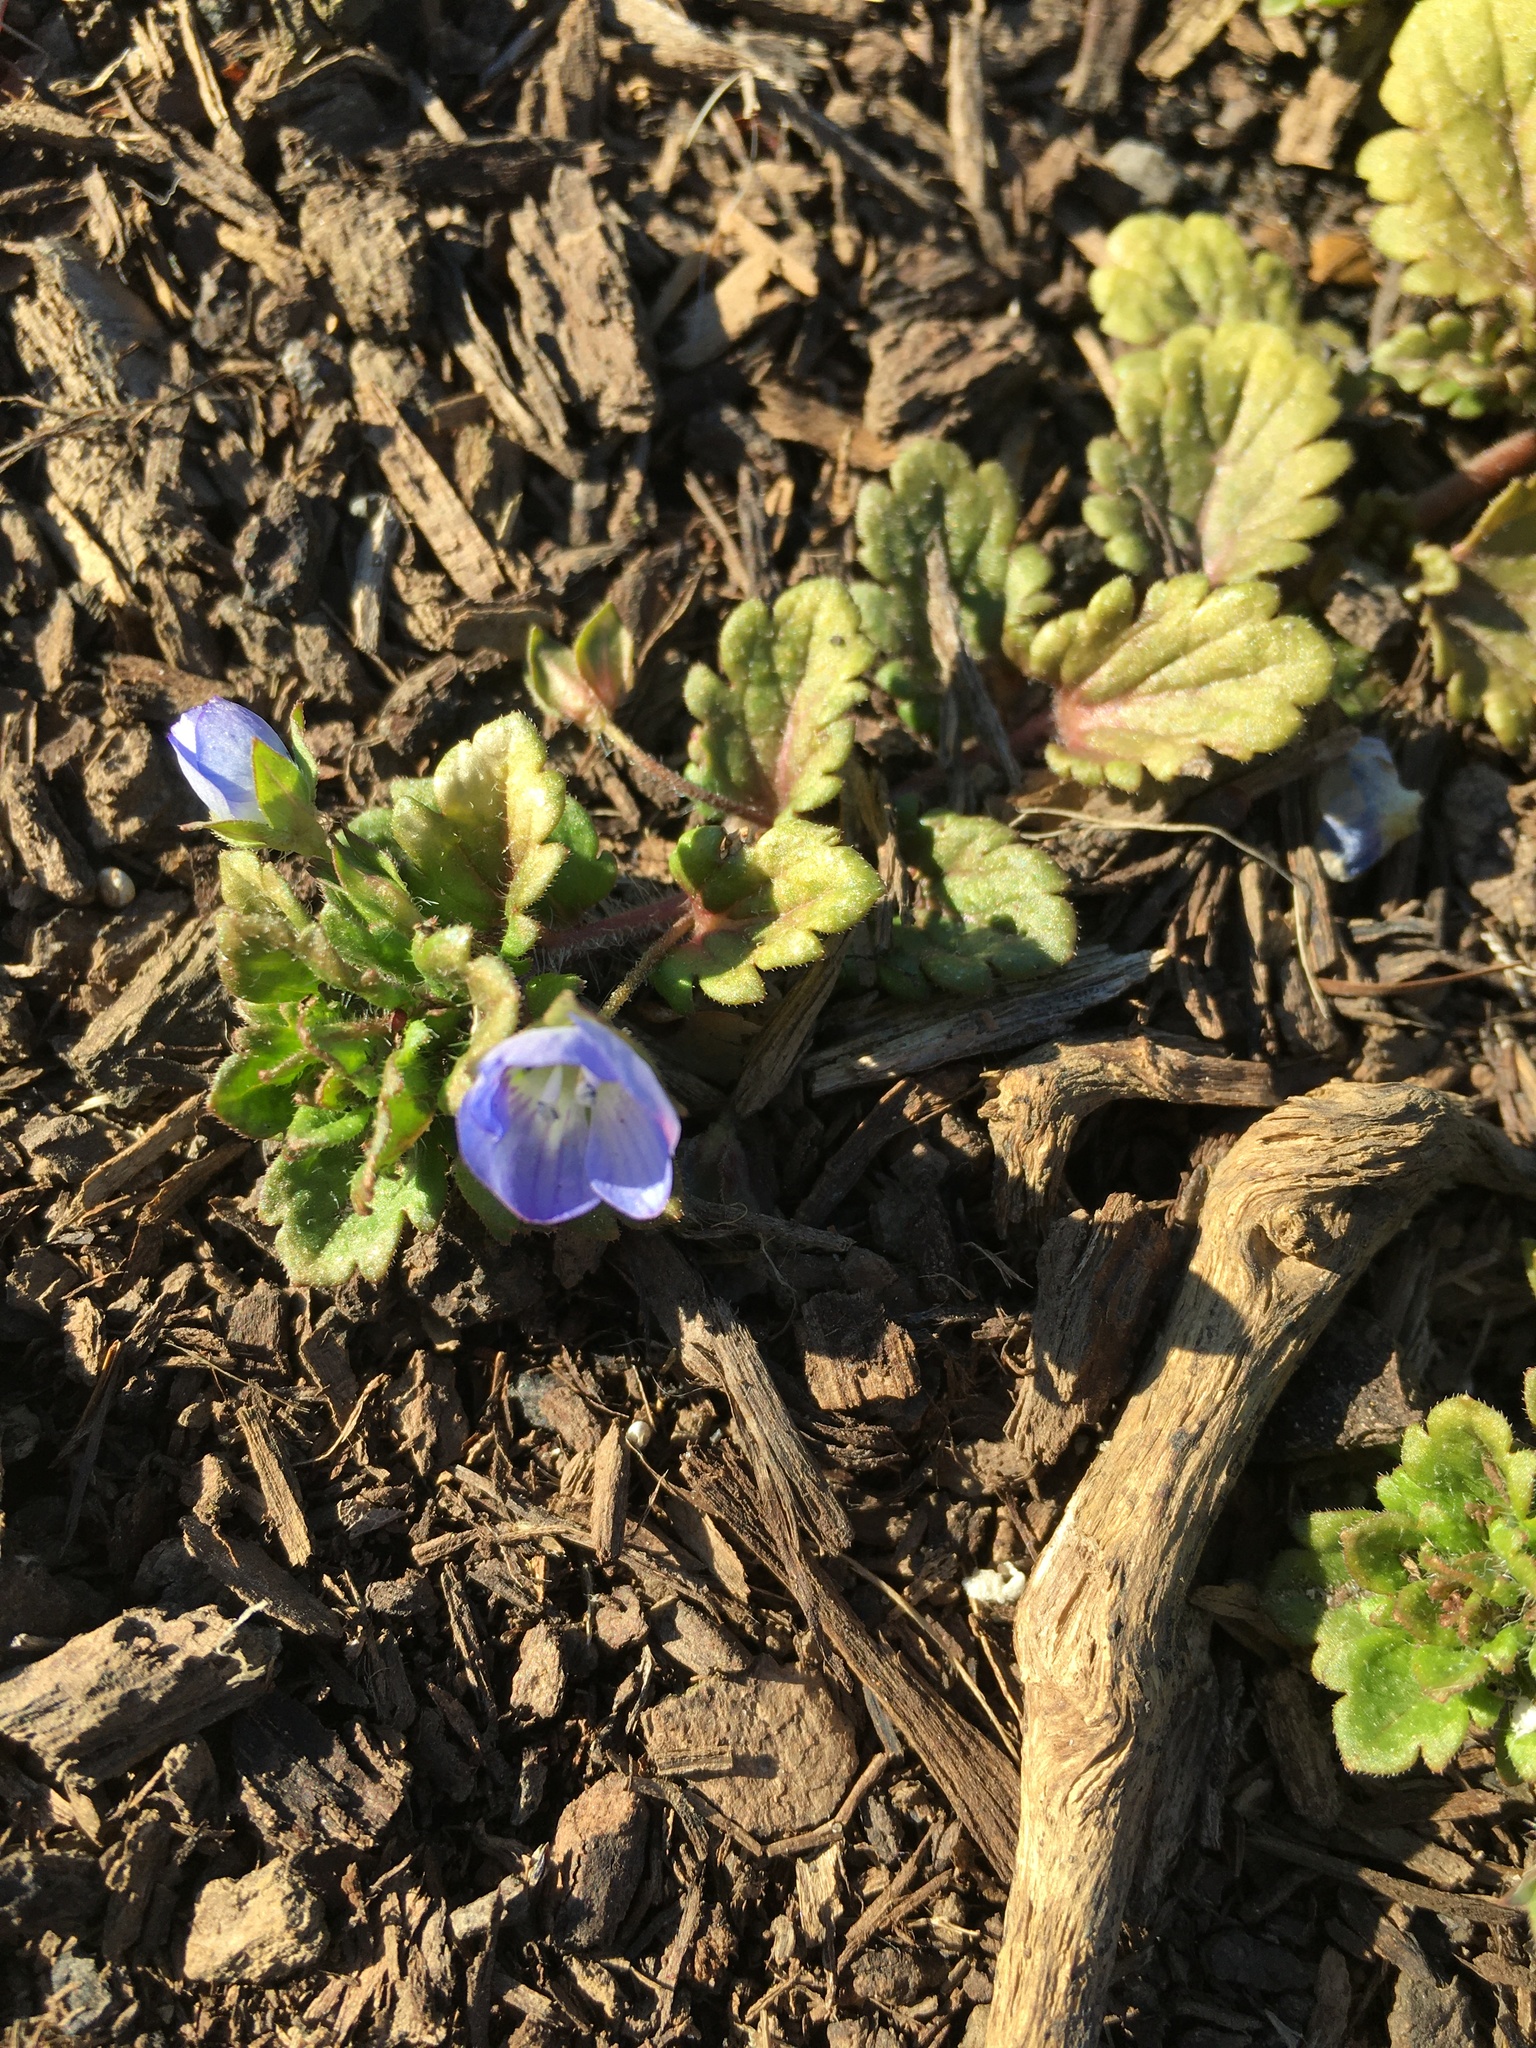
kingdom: Plantae
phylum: Tracheophyta
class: Magnoliopsida
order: Lamiales
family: Plantaginaceae
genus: Veronica
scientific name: Veronica persica
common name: Common field-speedwell
